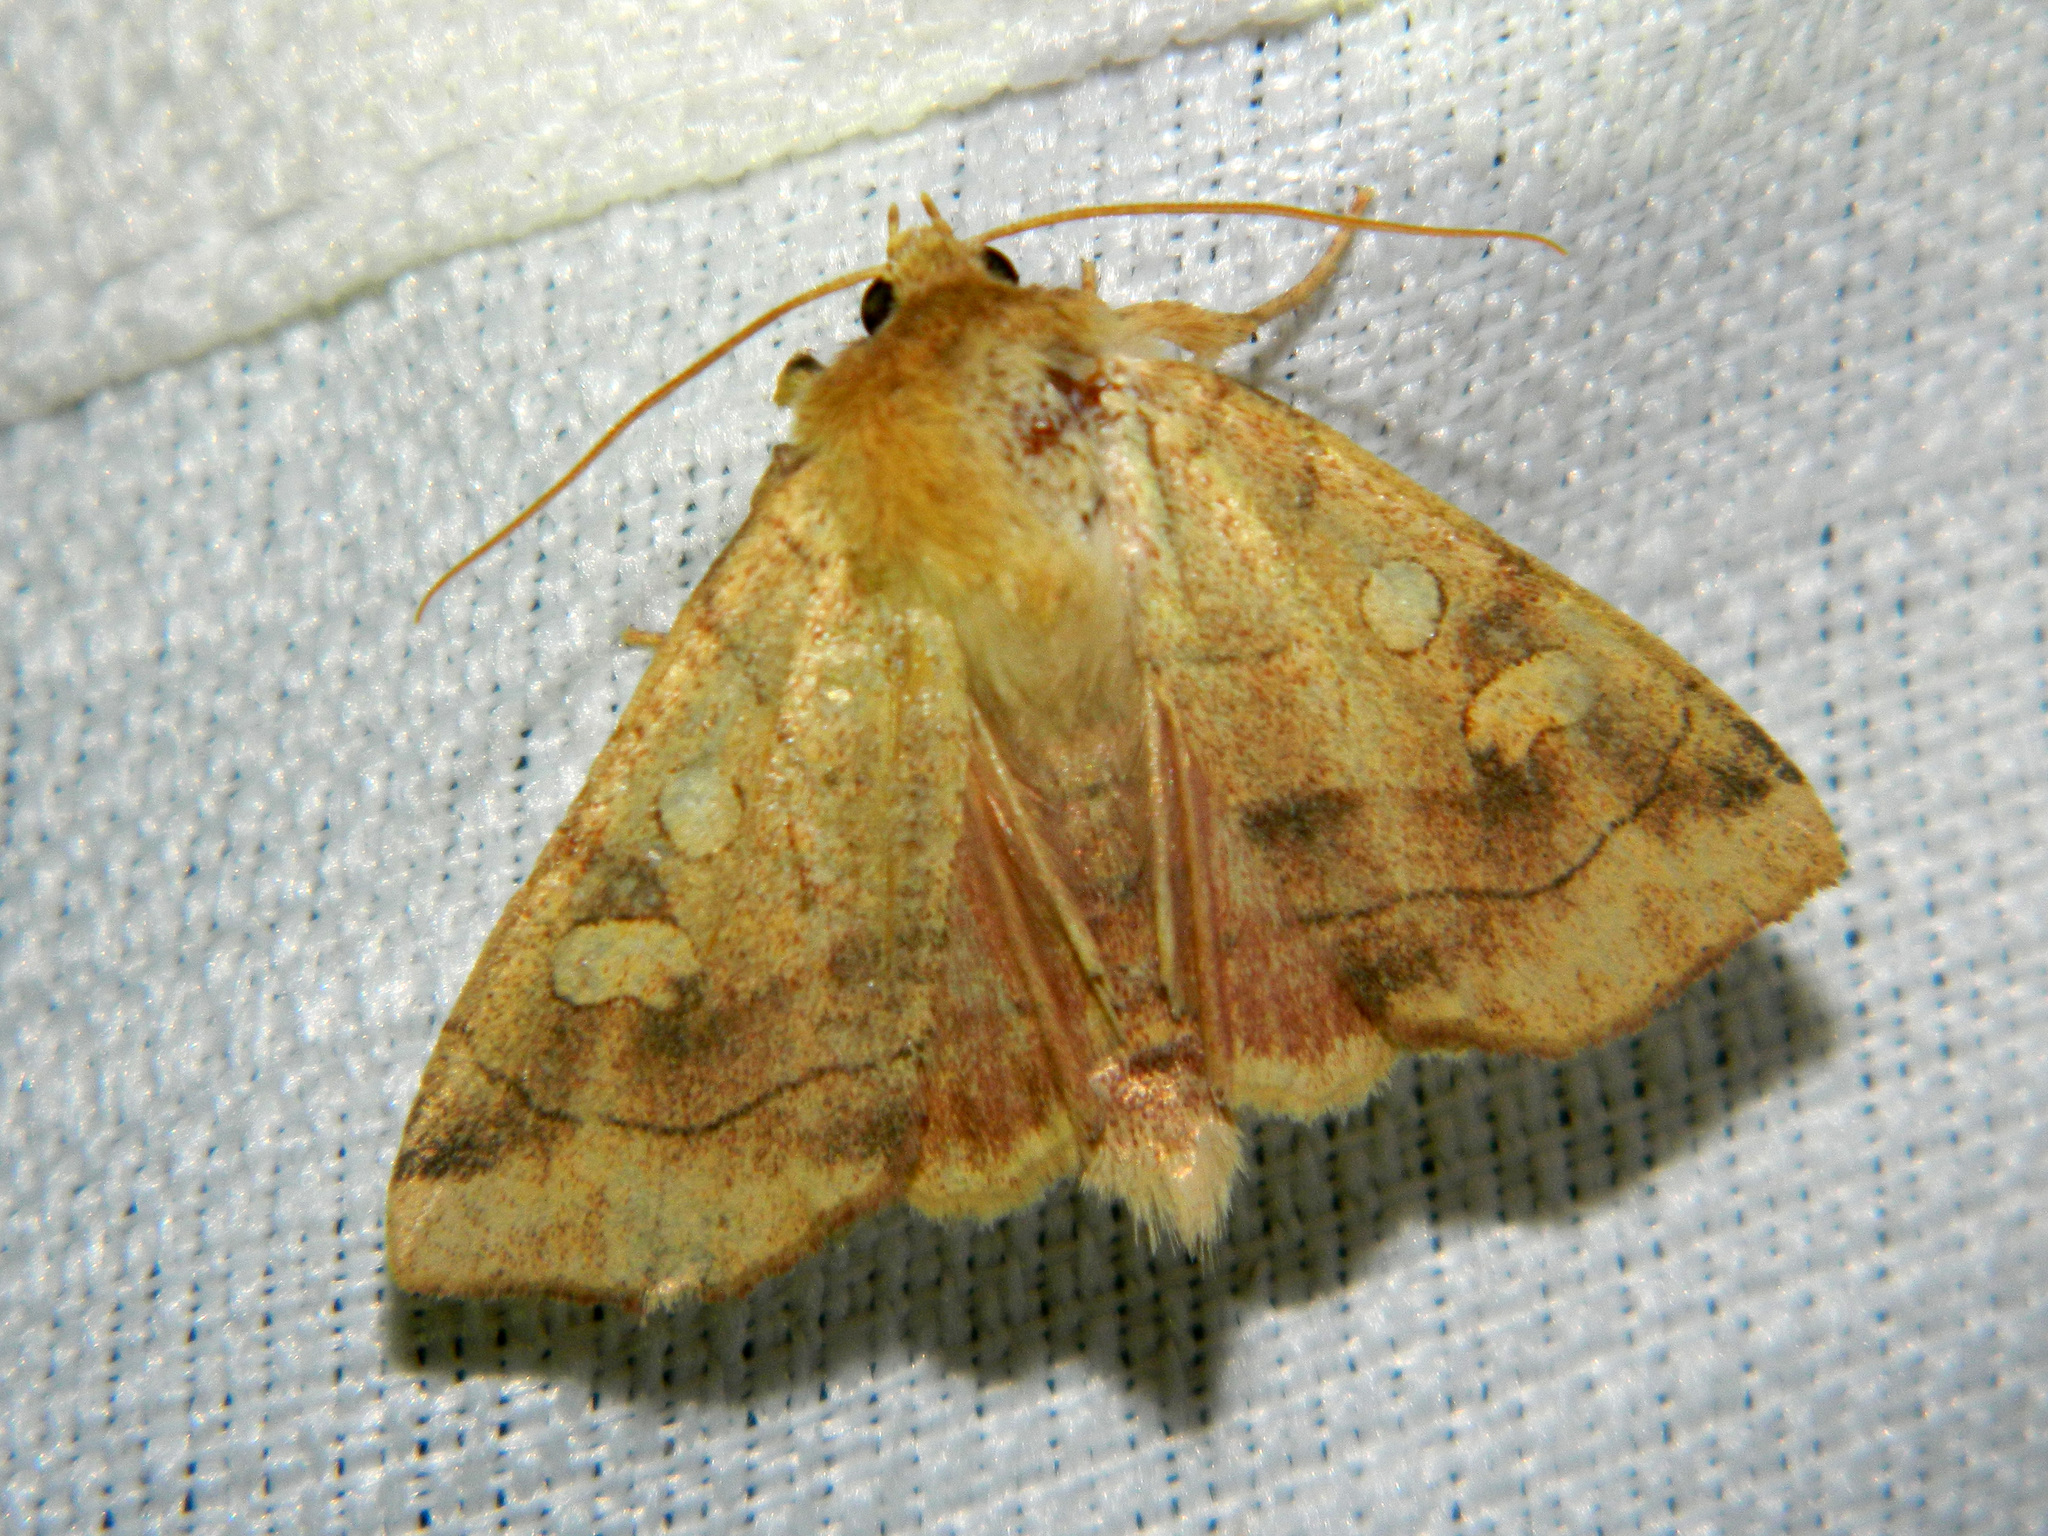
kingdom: Animalia
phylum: Arthropoda
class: Insecta
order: Lepidoptera
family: Noctuidae
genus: Enargia
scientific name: Enargia decolor
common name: Aspen twoleaf tier moth
